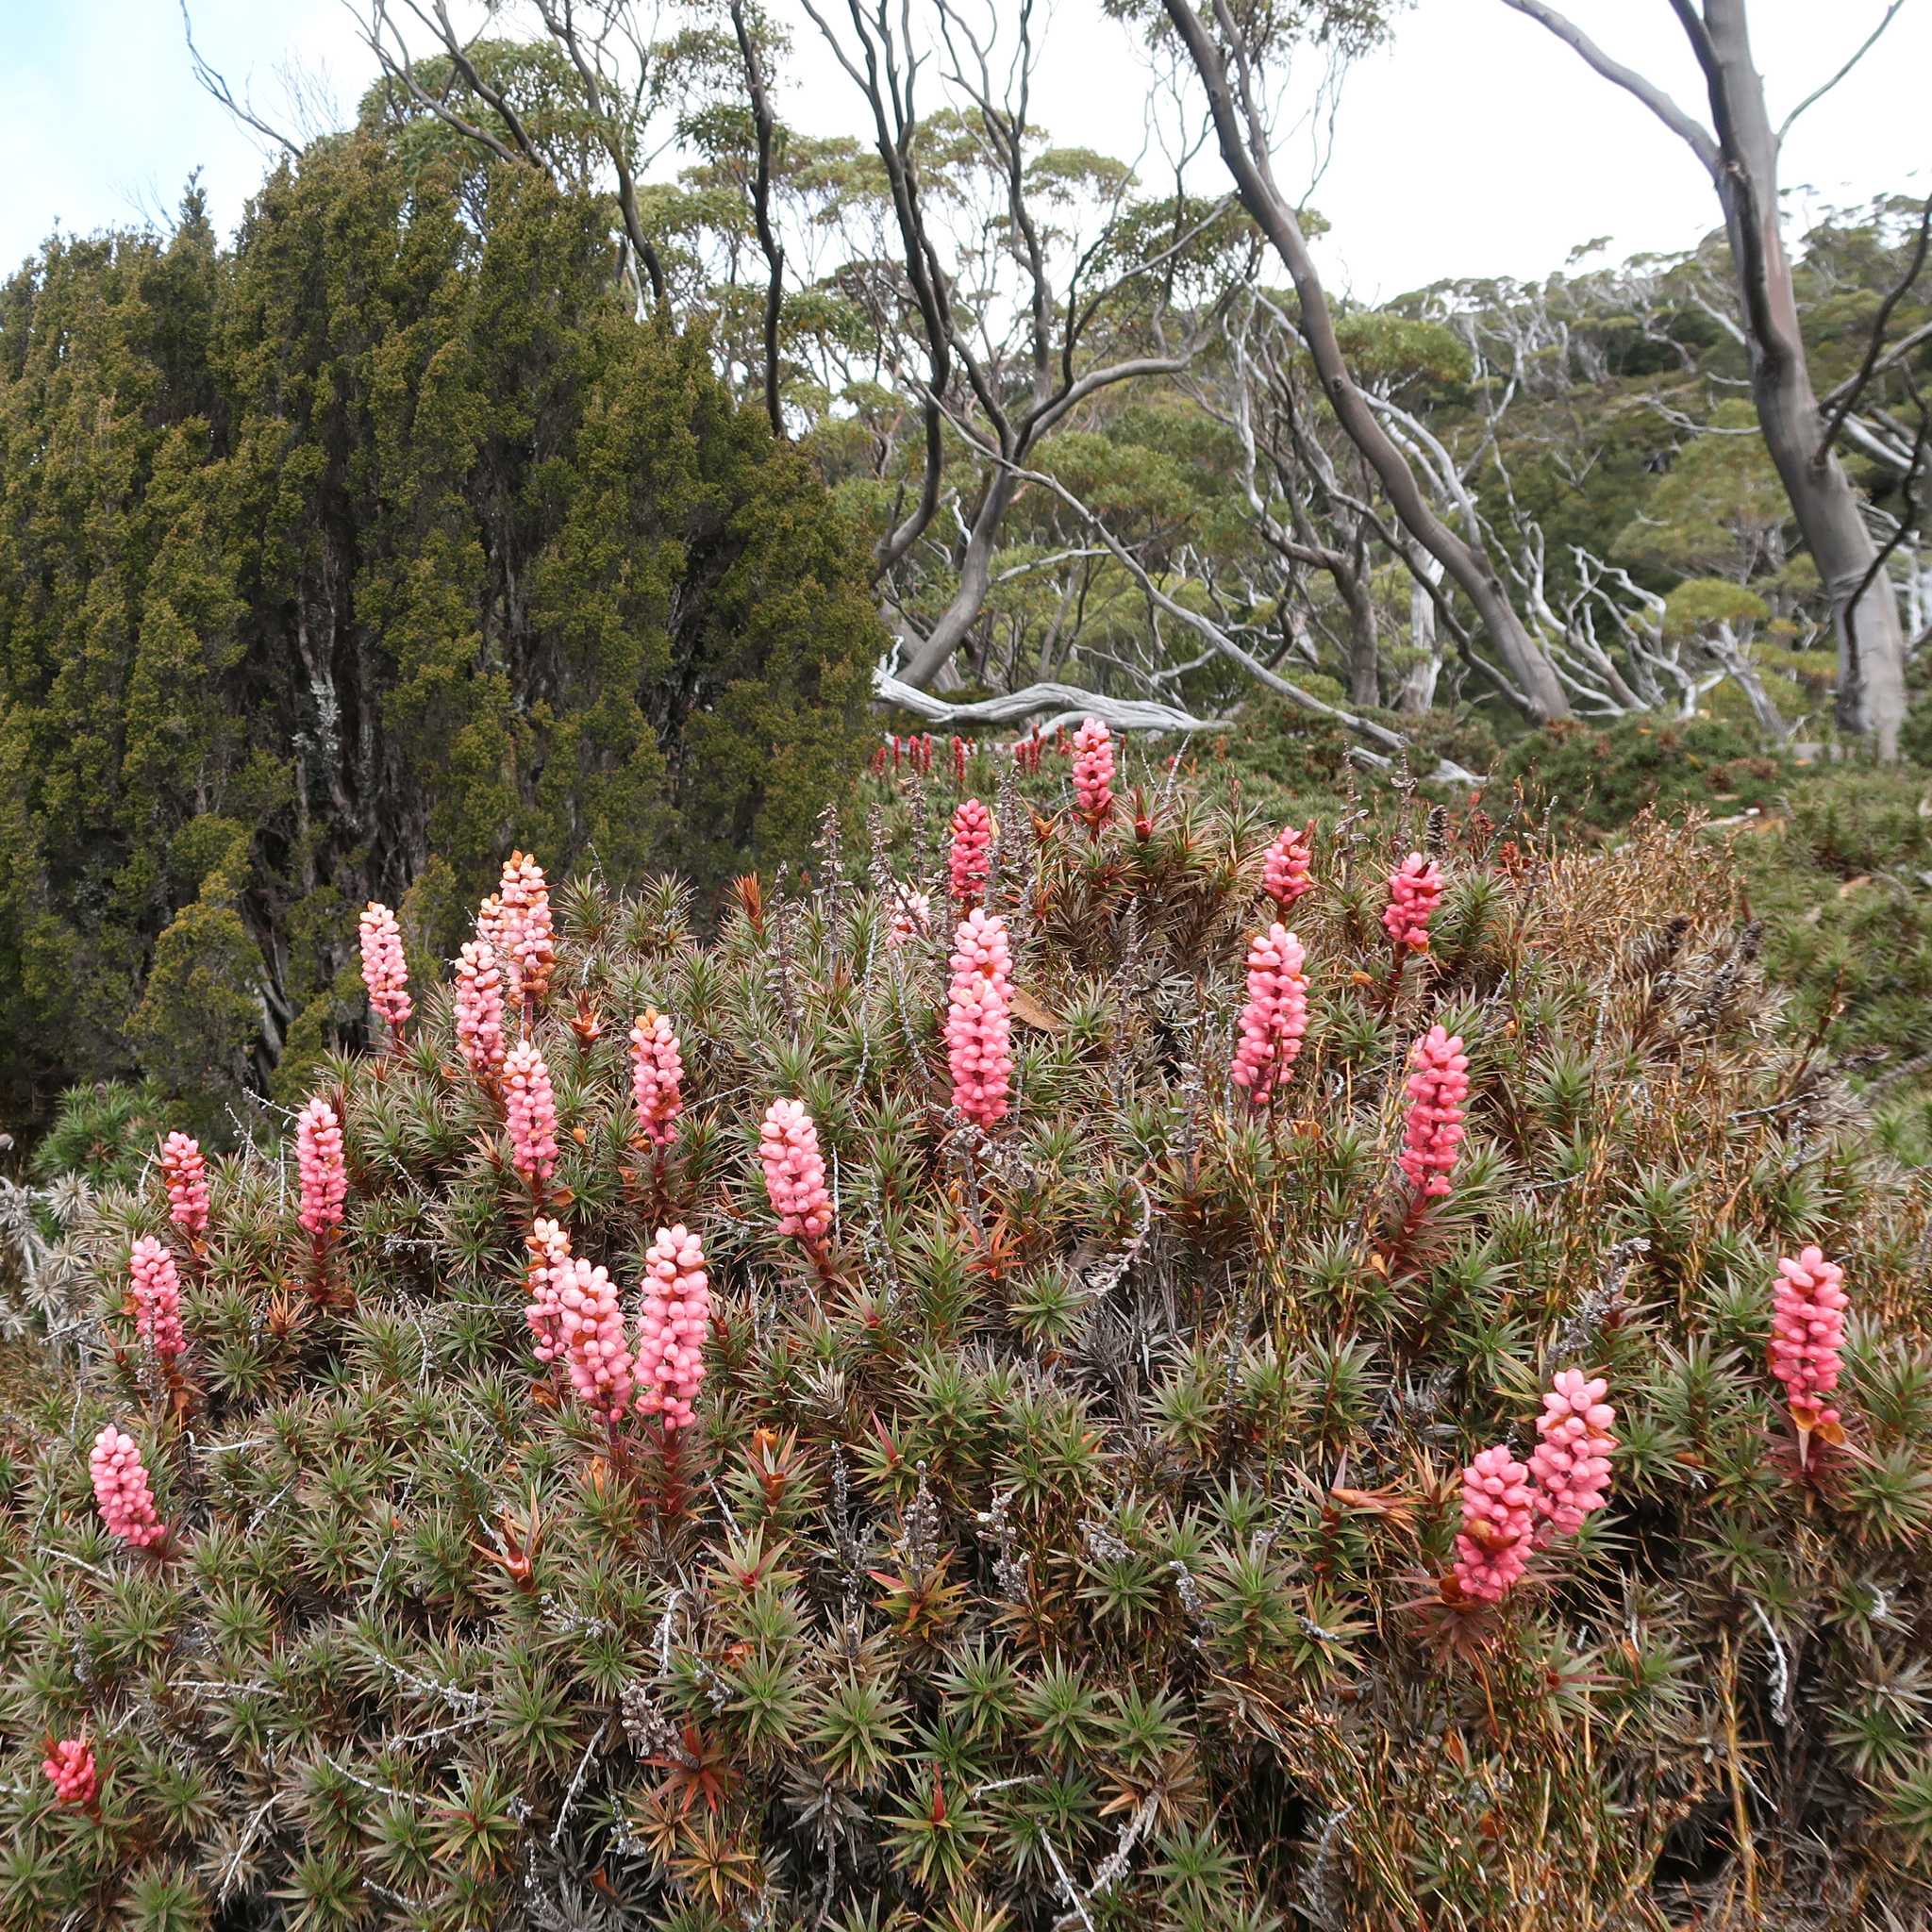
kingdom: Plantae
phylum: Tracheophyta
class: Magnoliopsida
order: Ericales
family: Ericaceae
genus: Dracophyllum
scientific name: Dracophyllum persistentifolium
